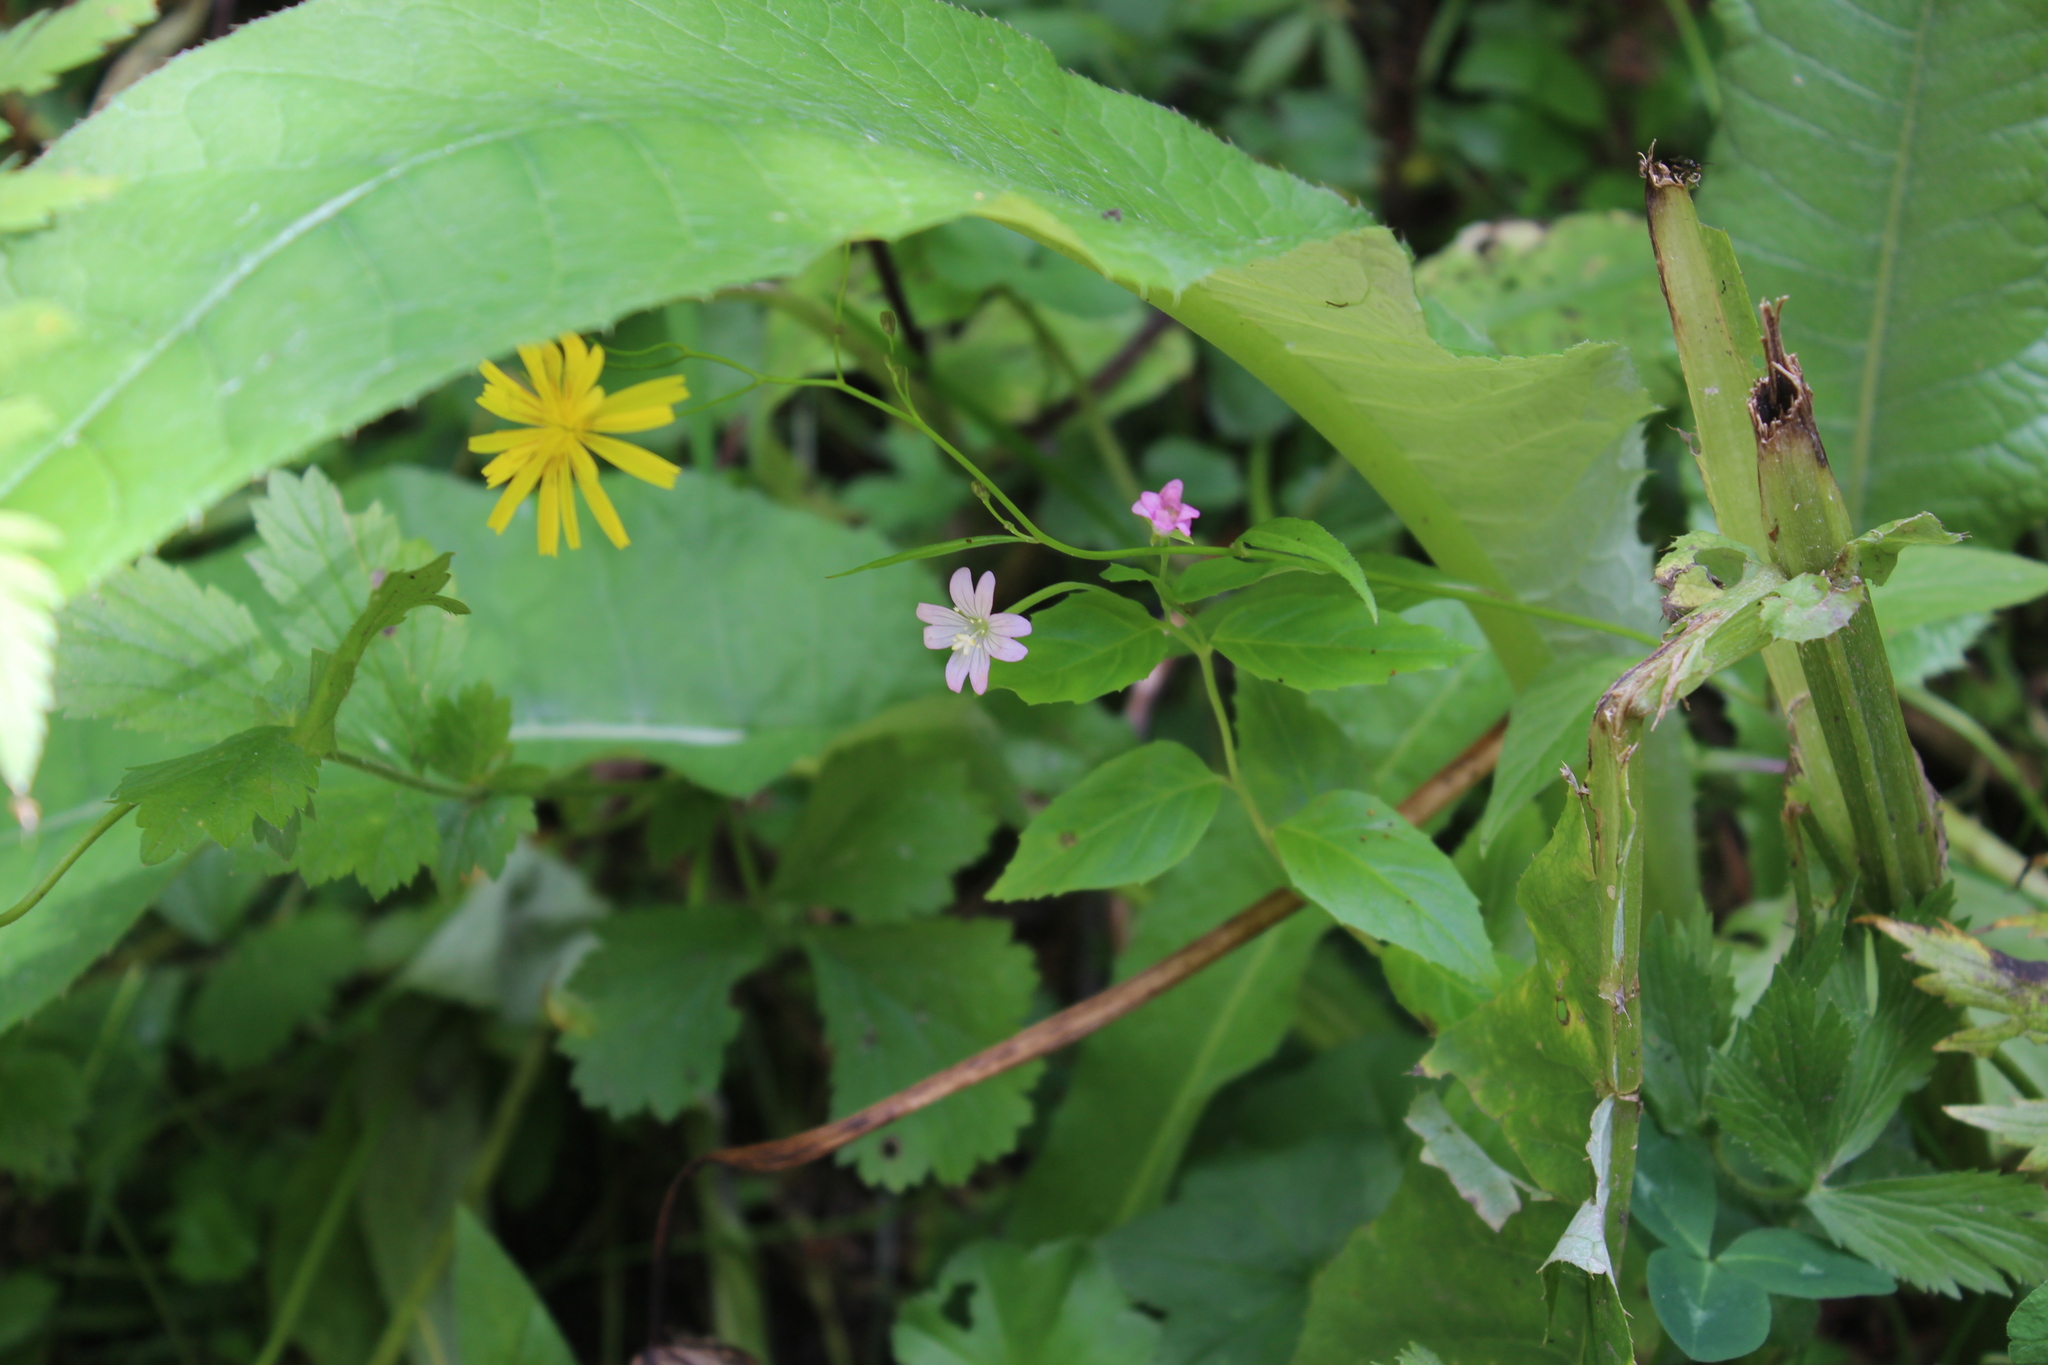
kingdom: Plantae
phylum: Tracheophyta
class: Magnoliopsida
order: Myrtales
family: Onagraceae
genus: Epilobium
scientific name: Epilobium montanum
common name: Broad-leaved willowherb
